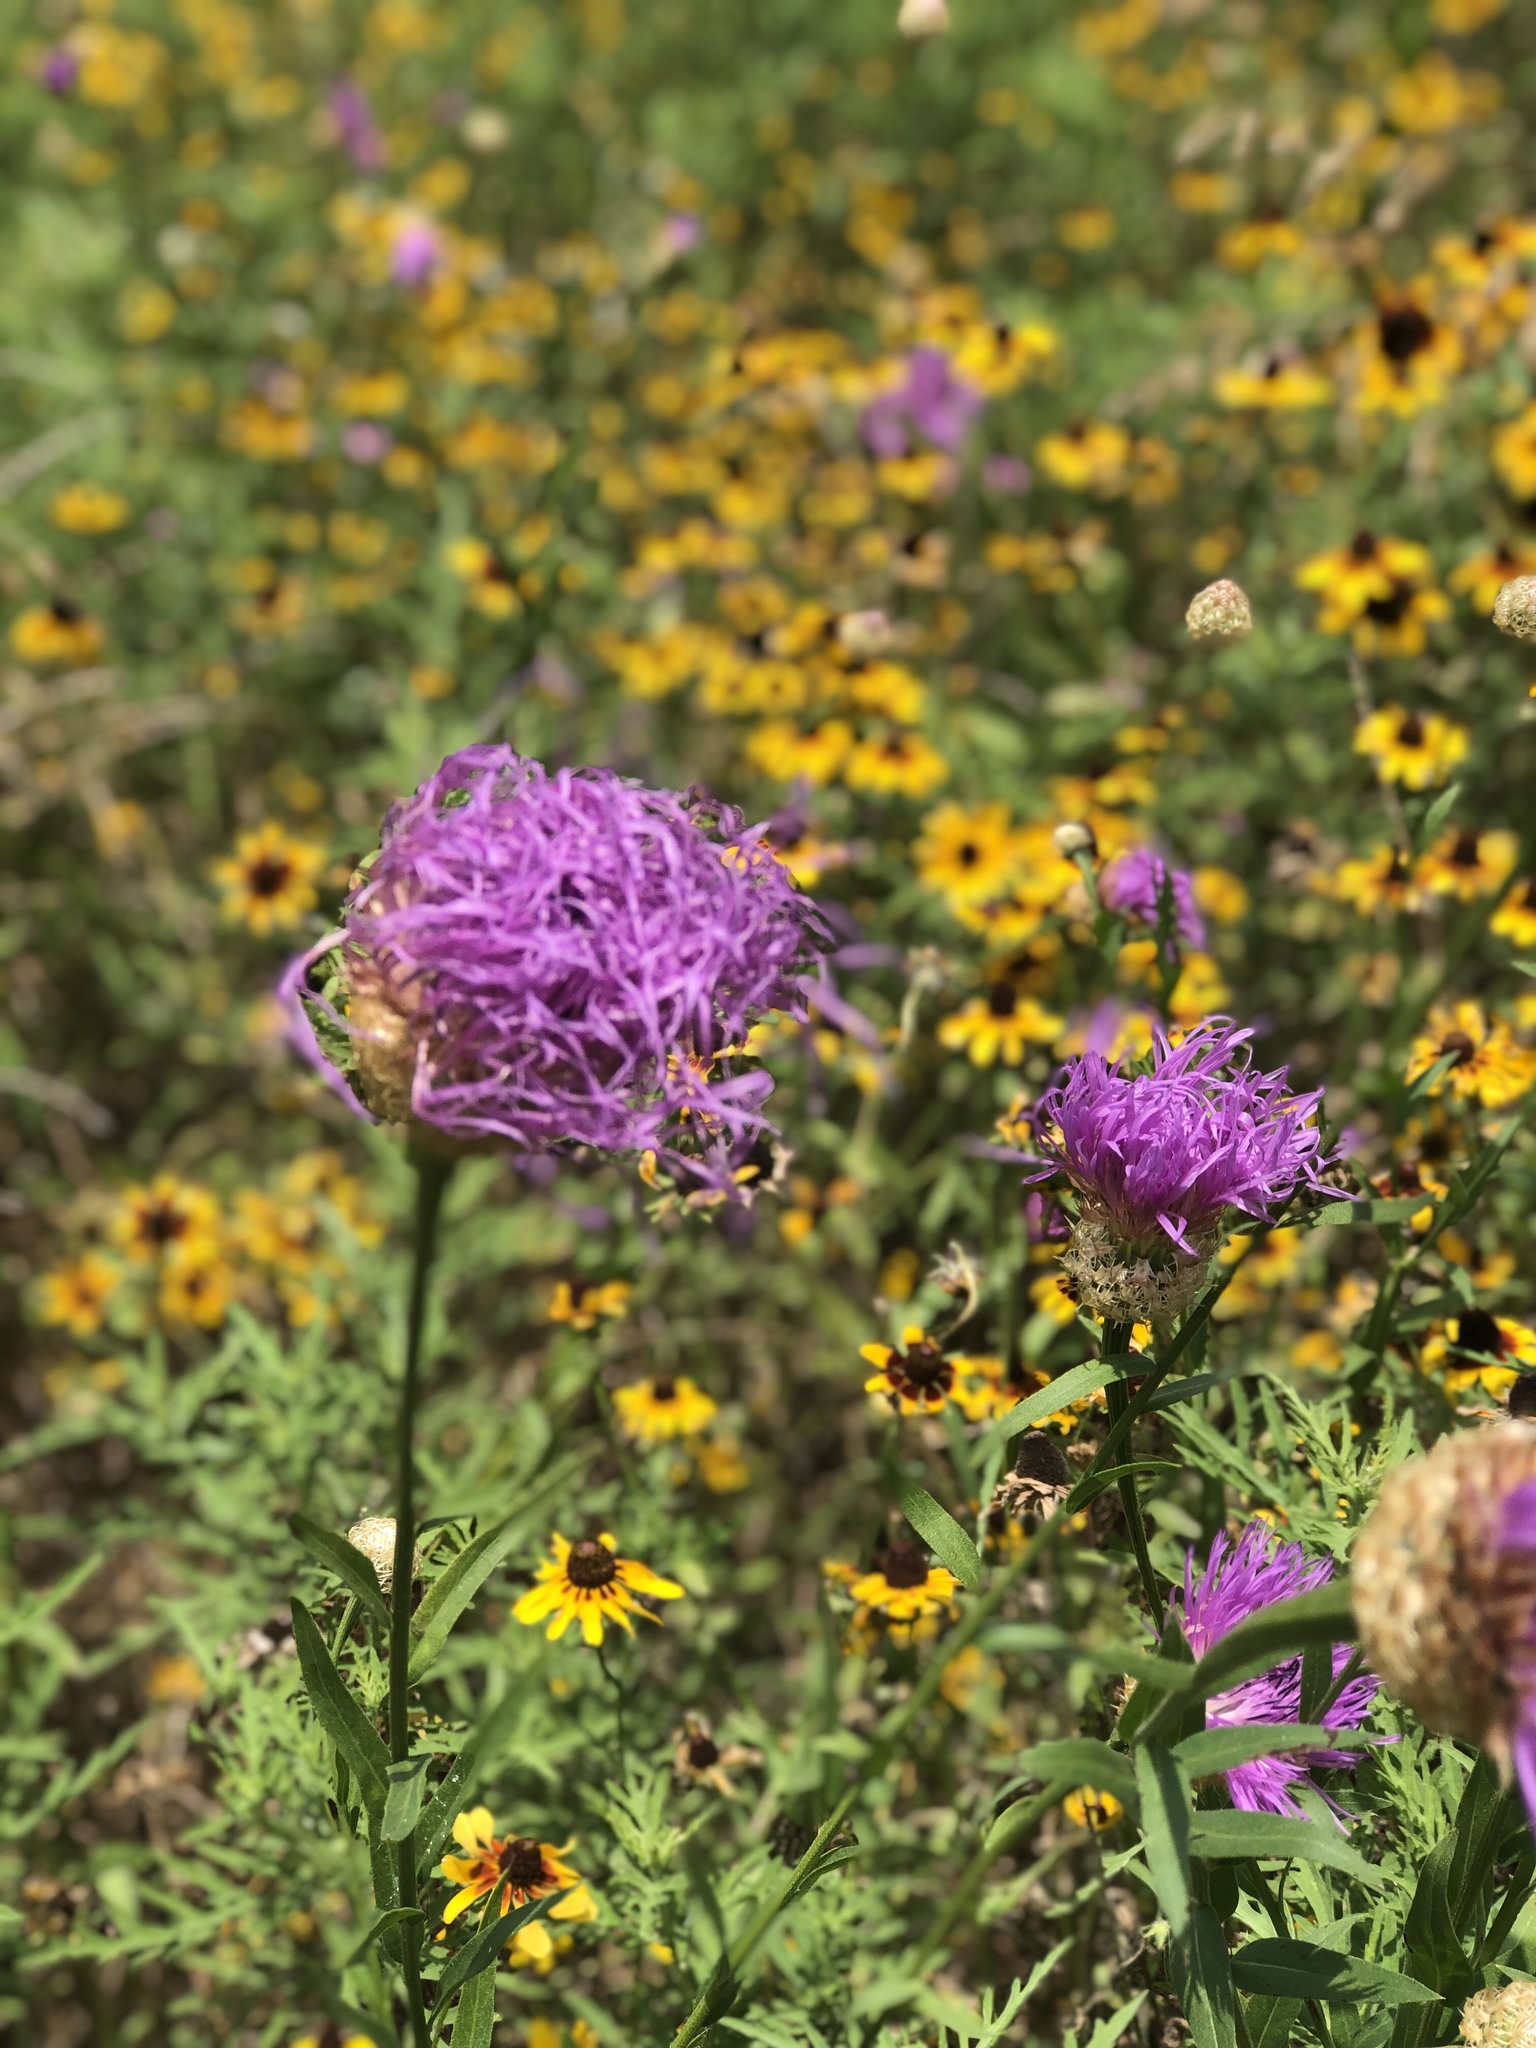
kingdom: Plantae
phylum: Tracheophyta
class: Magnoliopsida
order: Asterales
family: Asteraceae
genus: Plectocephalus
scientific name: Plectocephalus americanus
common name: American basket-flower
